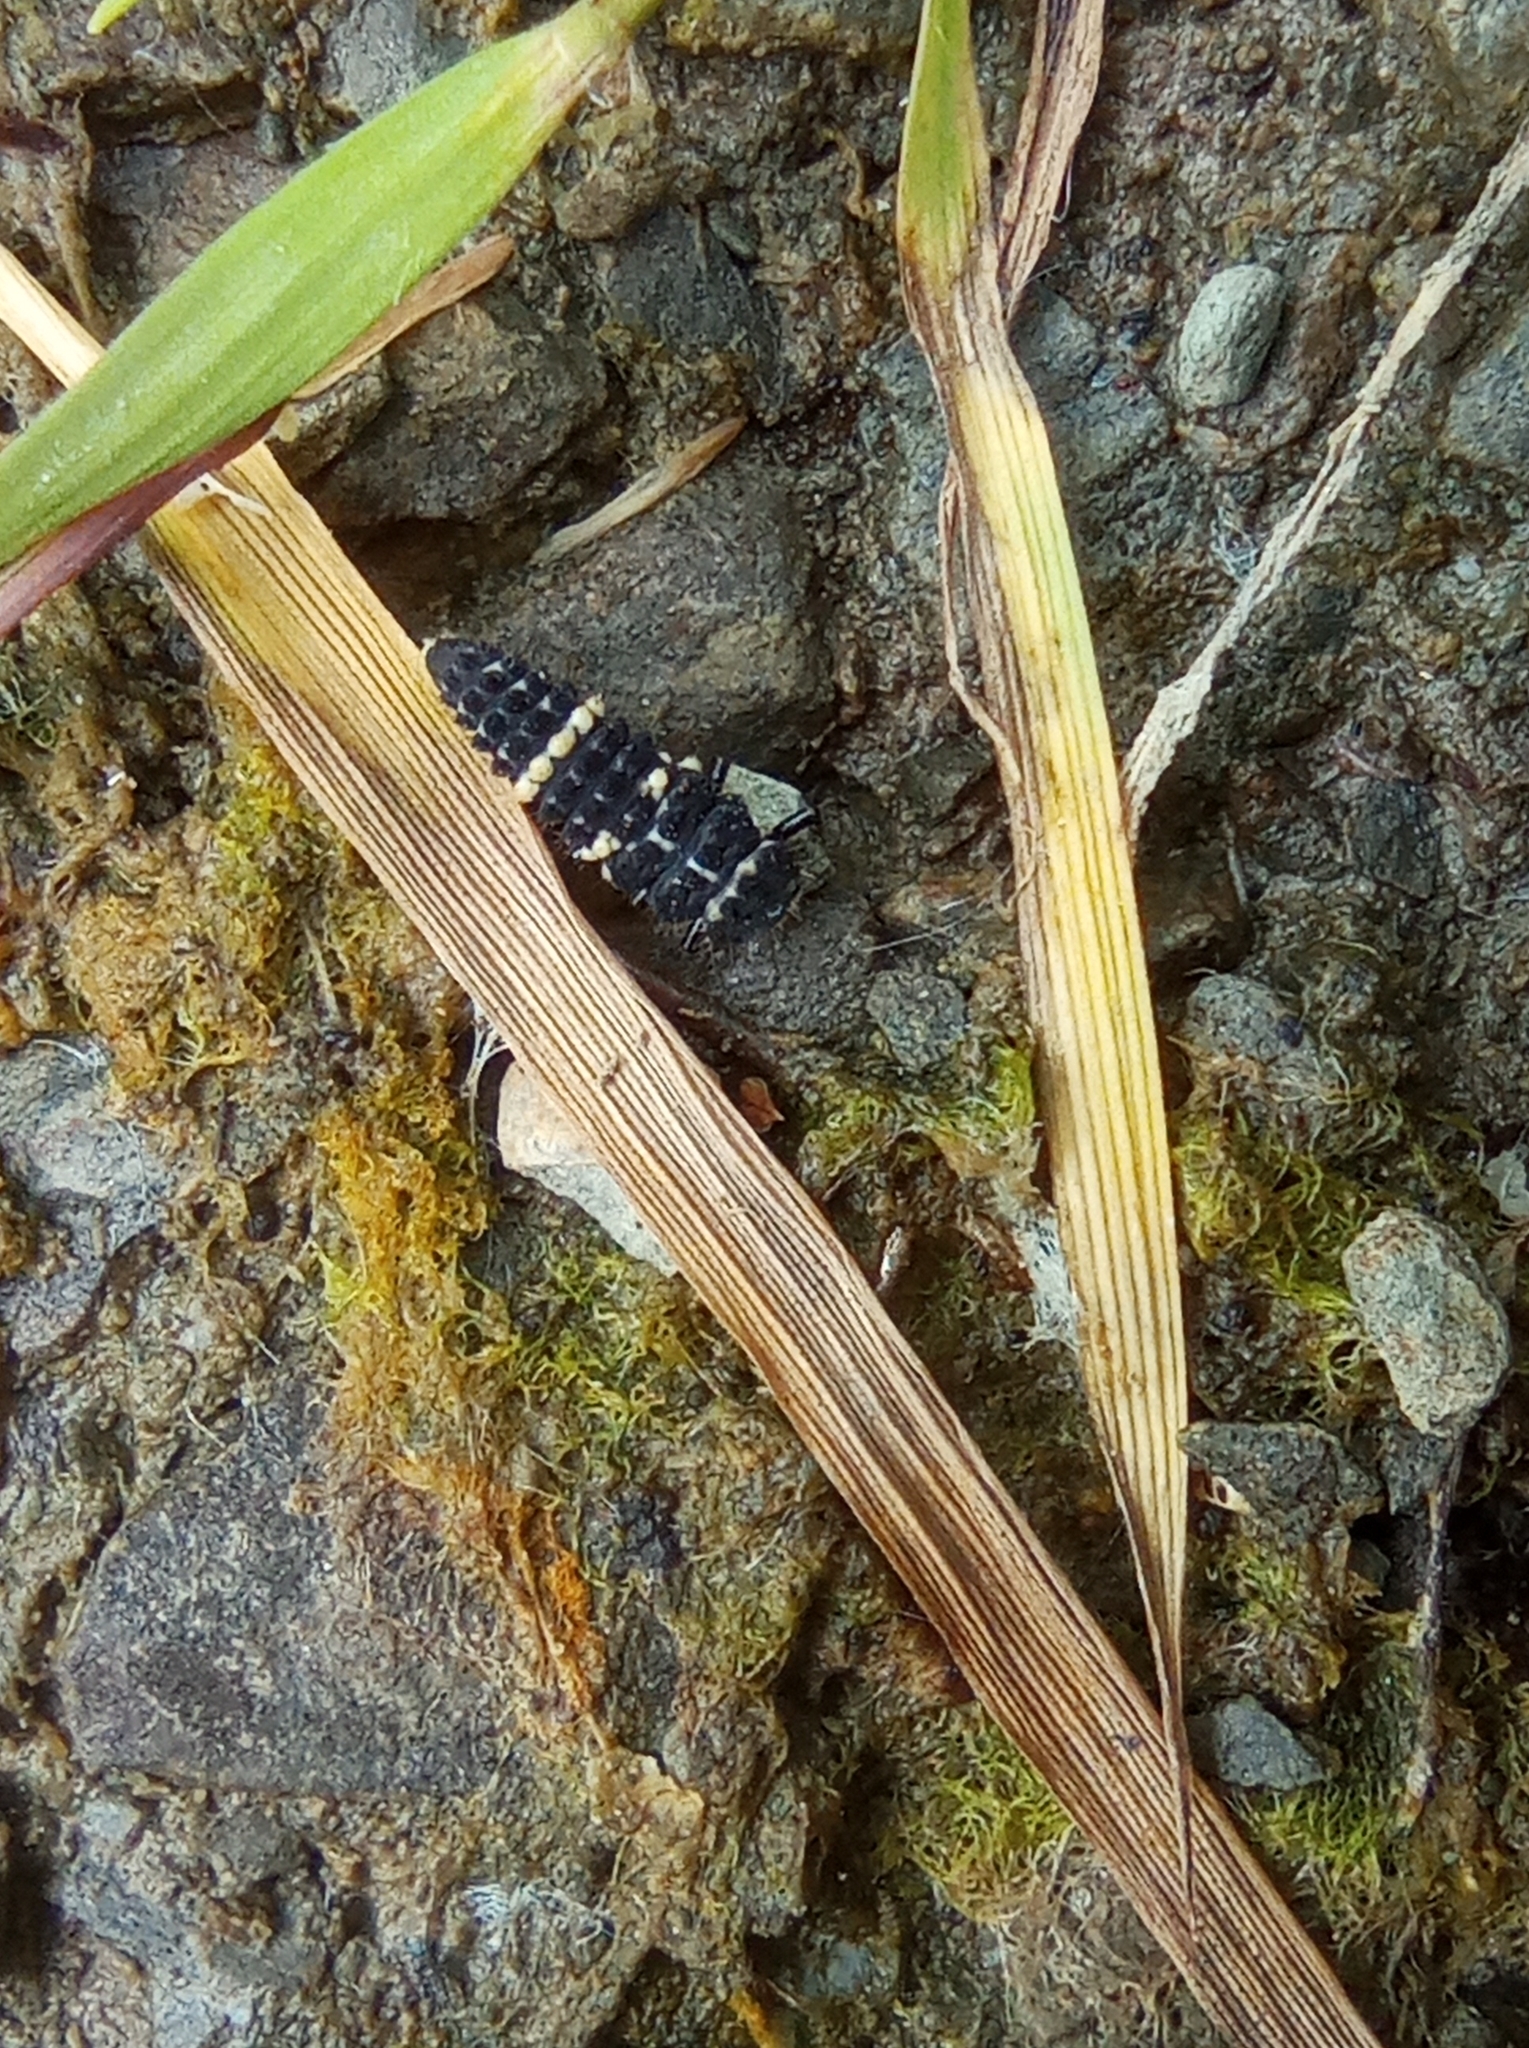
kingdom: Animalia
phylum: Arthropoda
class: Insecta
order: Coleoptera
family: Coccinellidae
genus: Hippodamia
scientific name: Hippodamia tredecimpunctata
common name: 13-spot ladybird
